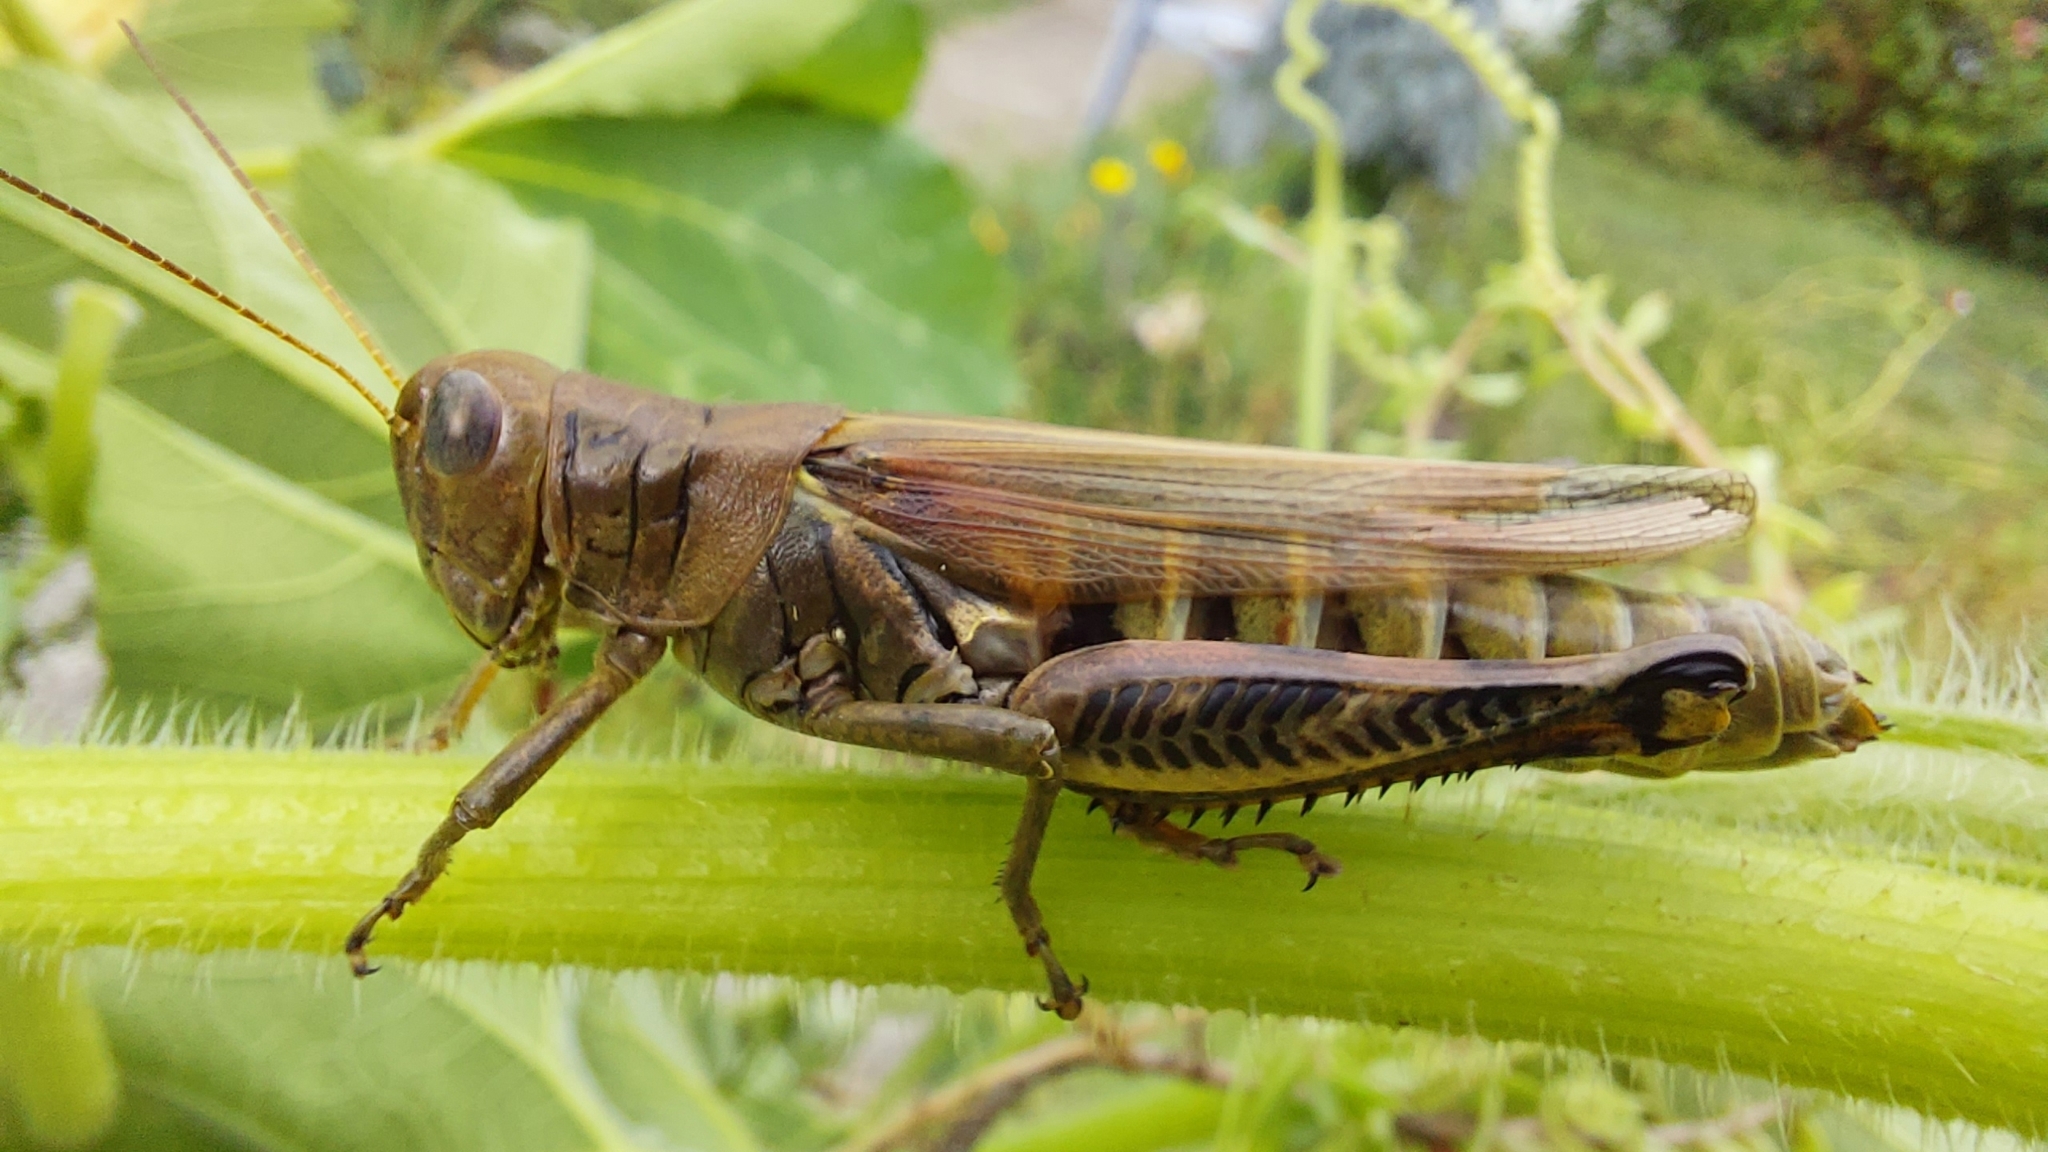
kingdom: Animalia
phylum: Arthropoda
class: Insecta
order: Orthoptera
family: Acrididae
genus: Melanoplus
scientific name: Melanoplus differentialis
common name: Differential grasshopper
